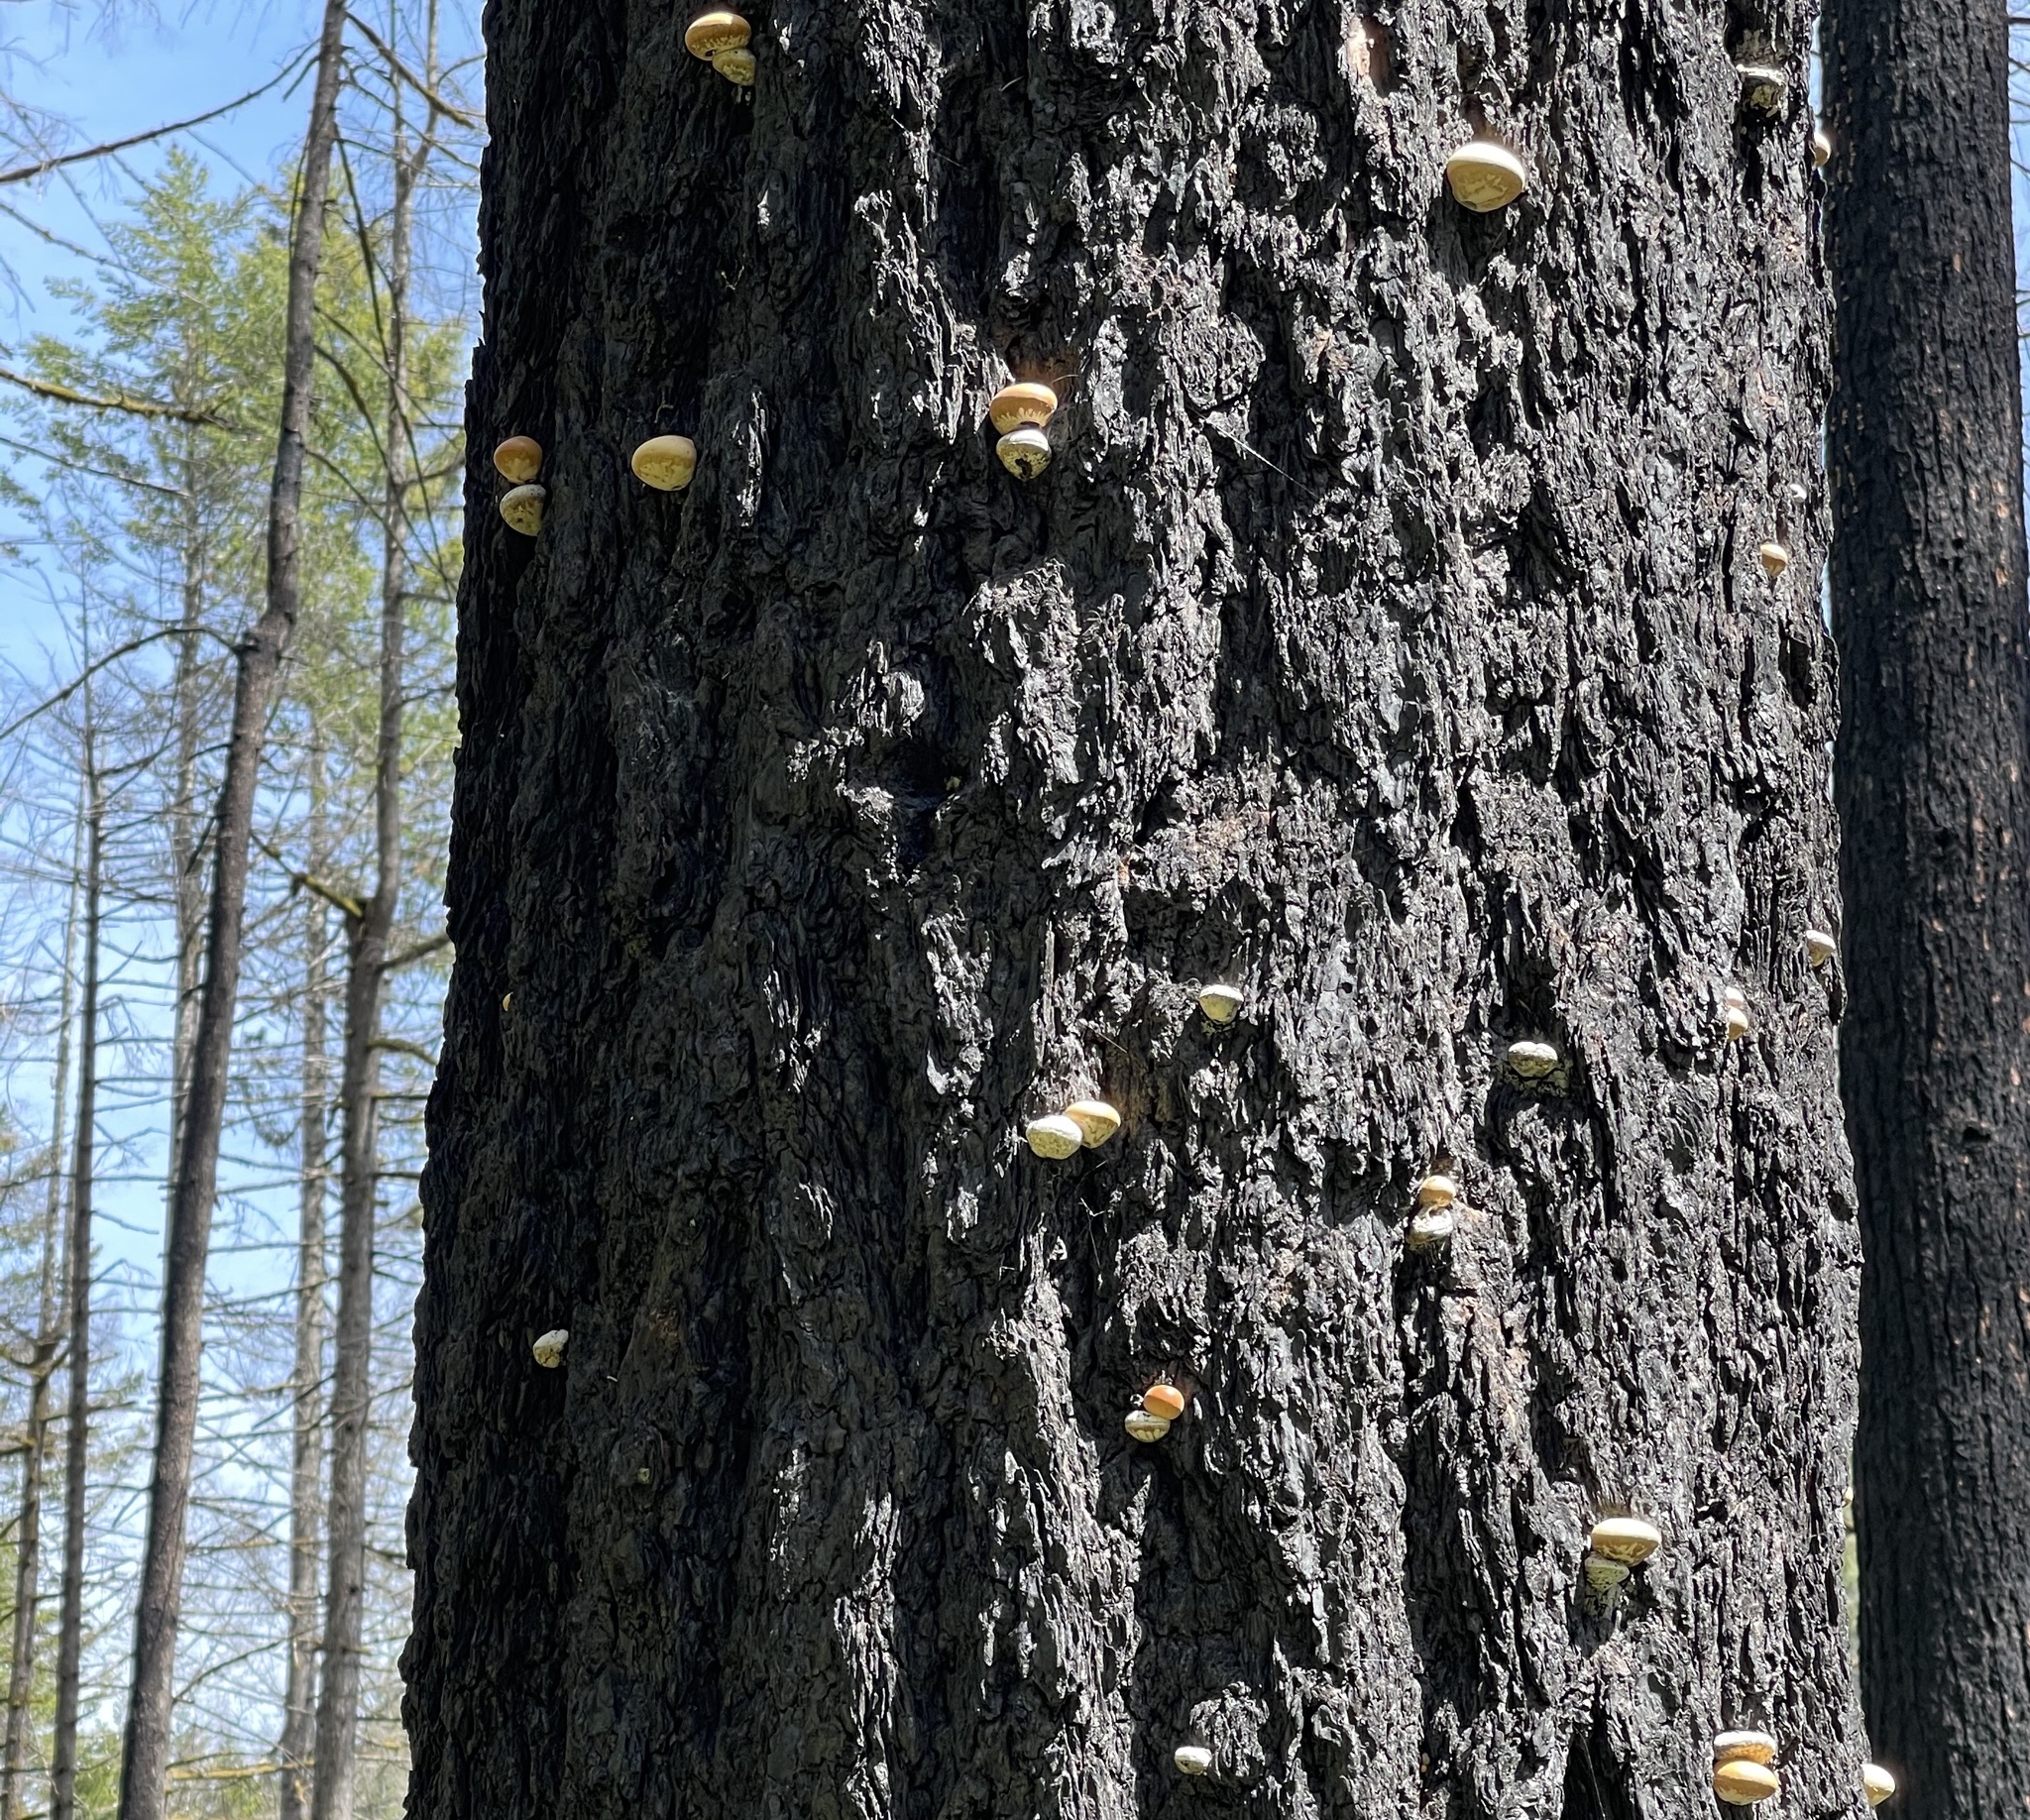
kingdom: Fungi
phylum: Basidiomycota
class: Agaricomycetes
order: Polyporales
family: Polyporaceae
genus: Cryptoporus
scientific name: Cryptoporus volvatus
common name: Veiled polypore
